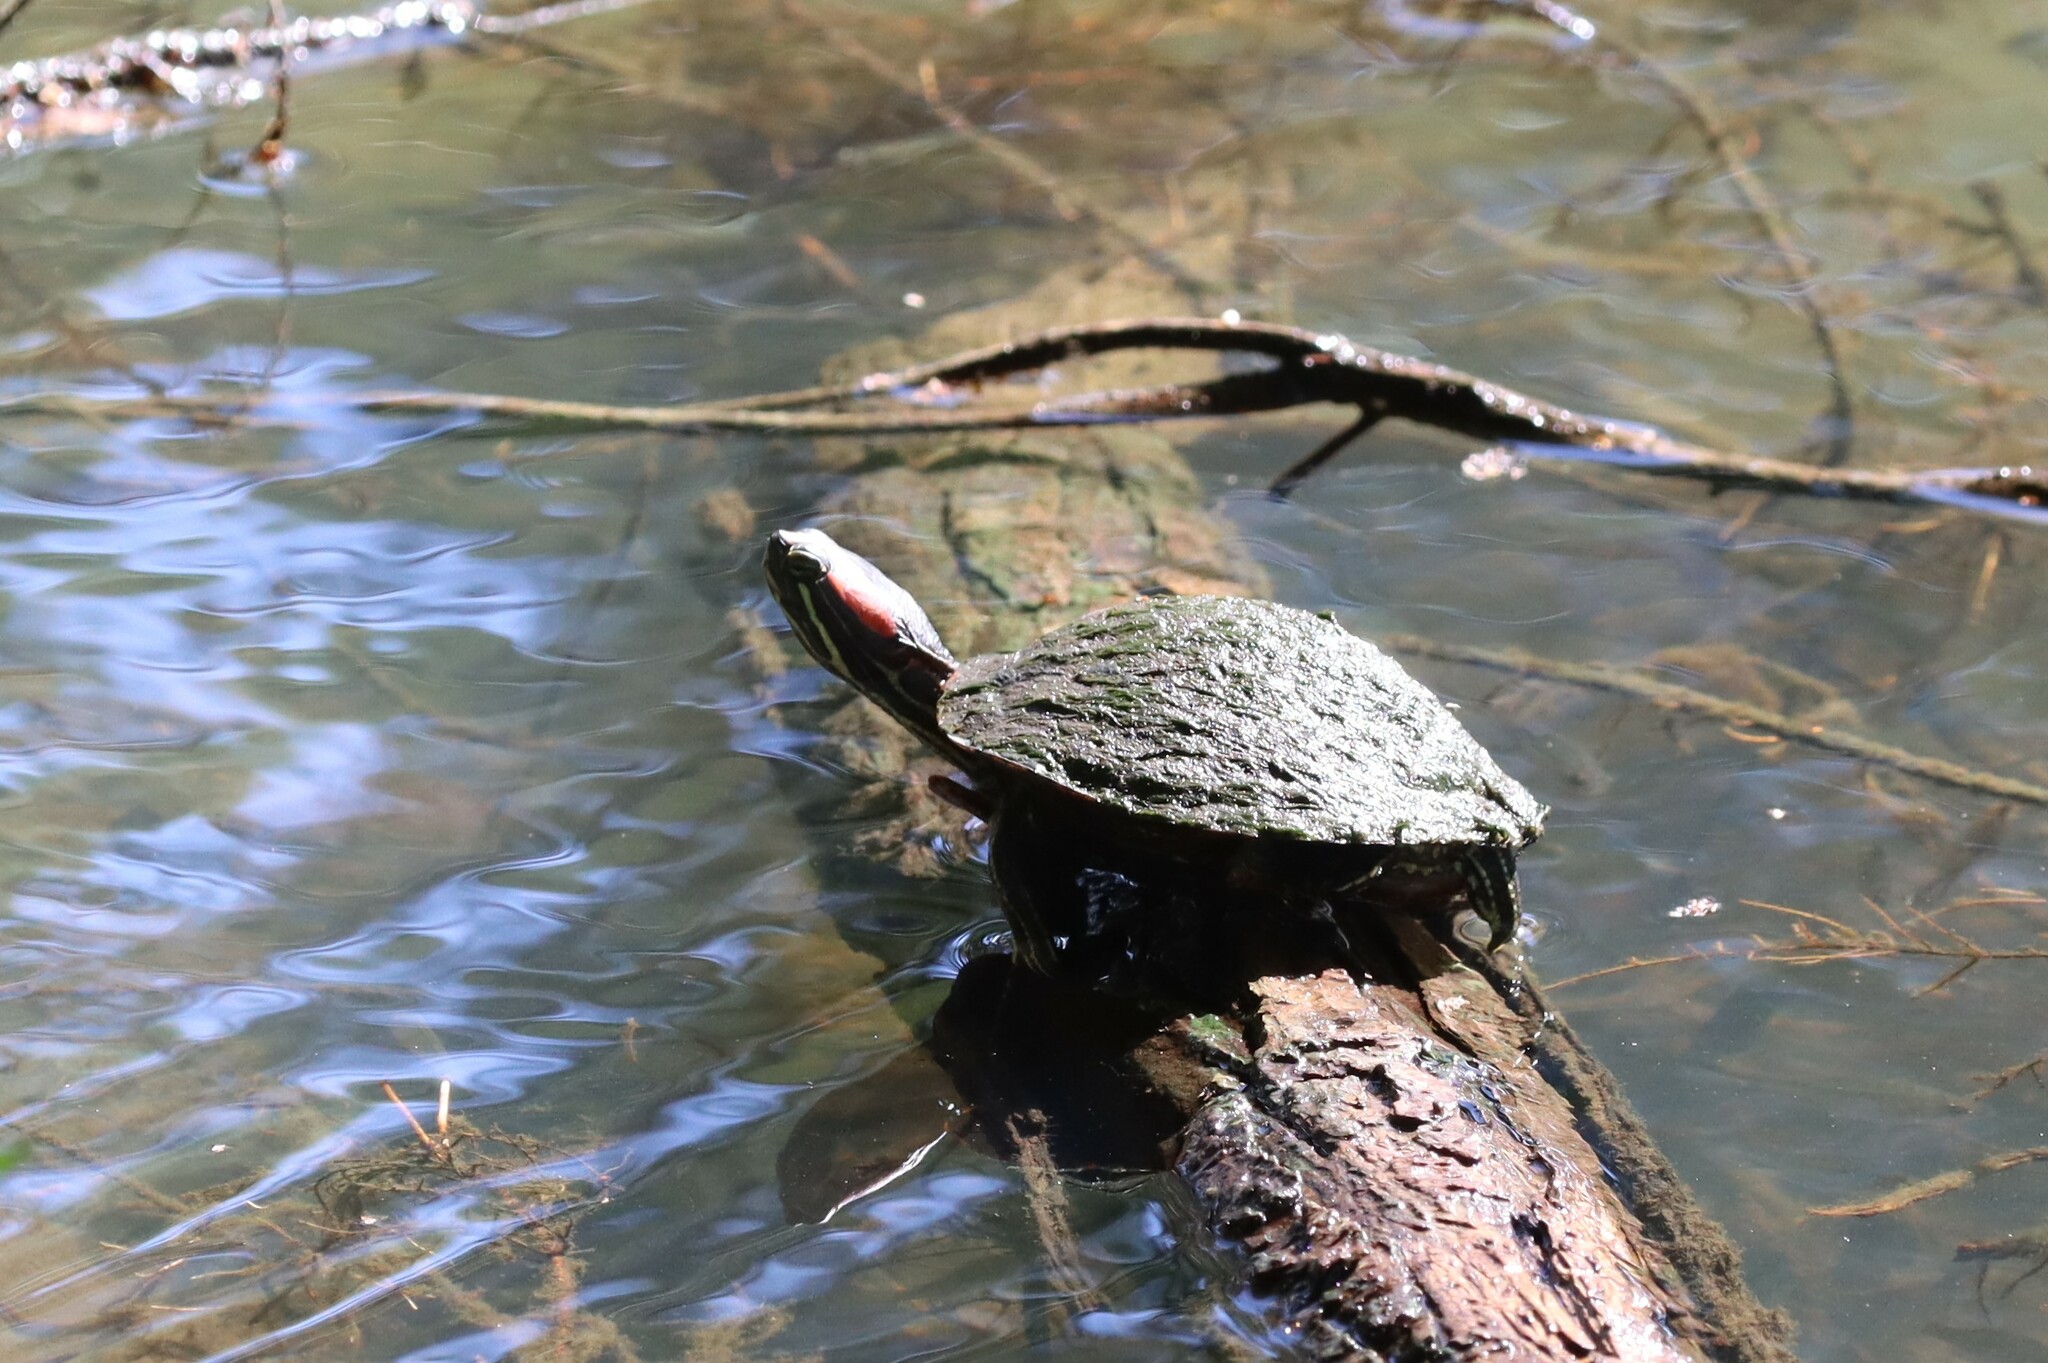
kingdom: Animalia
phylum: Chordata
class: Testudines
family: Emydidae
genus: Trachemys
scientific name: Trachemys scripta
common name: Slider
